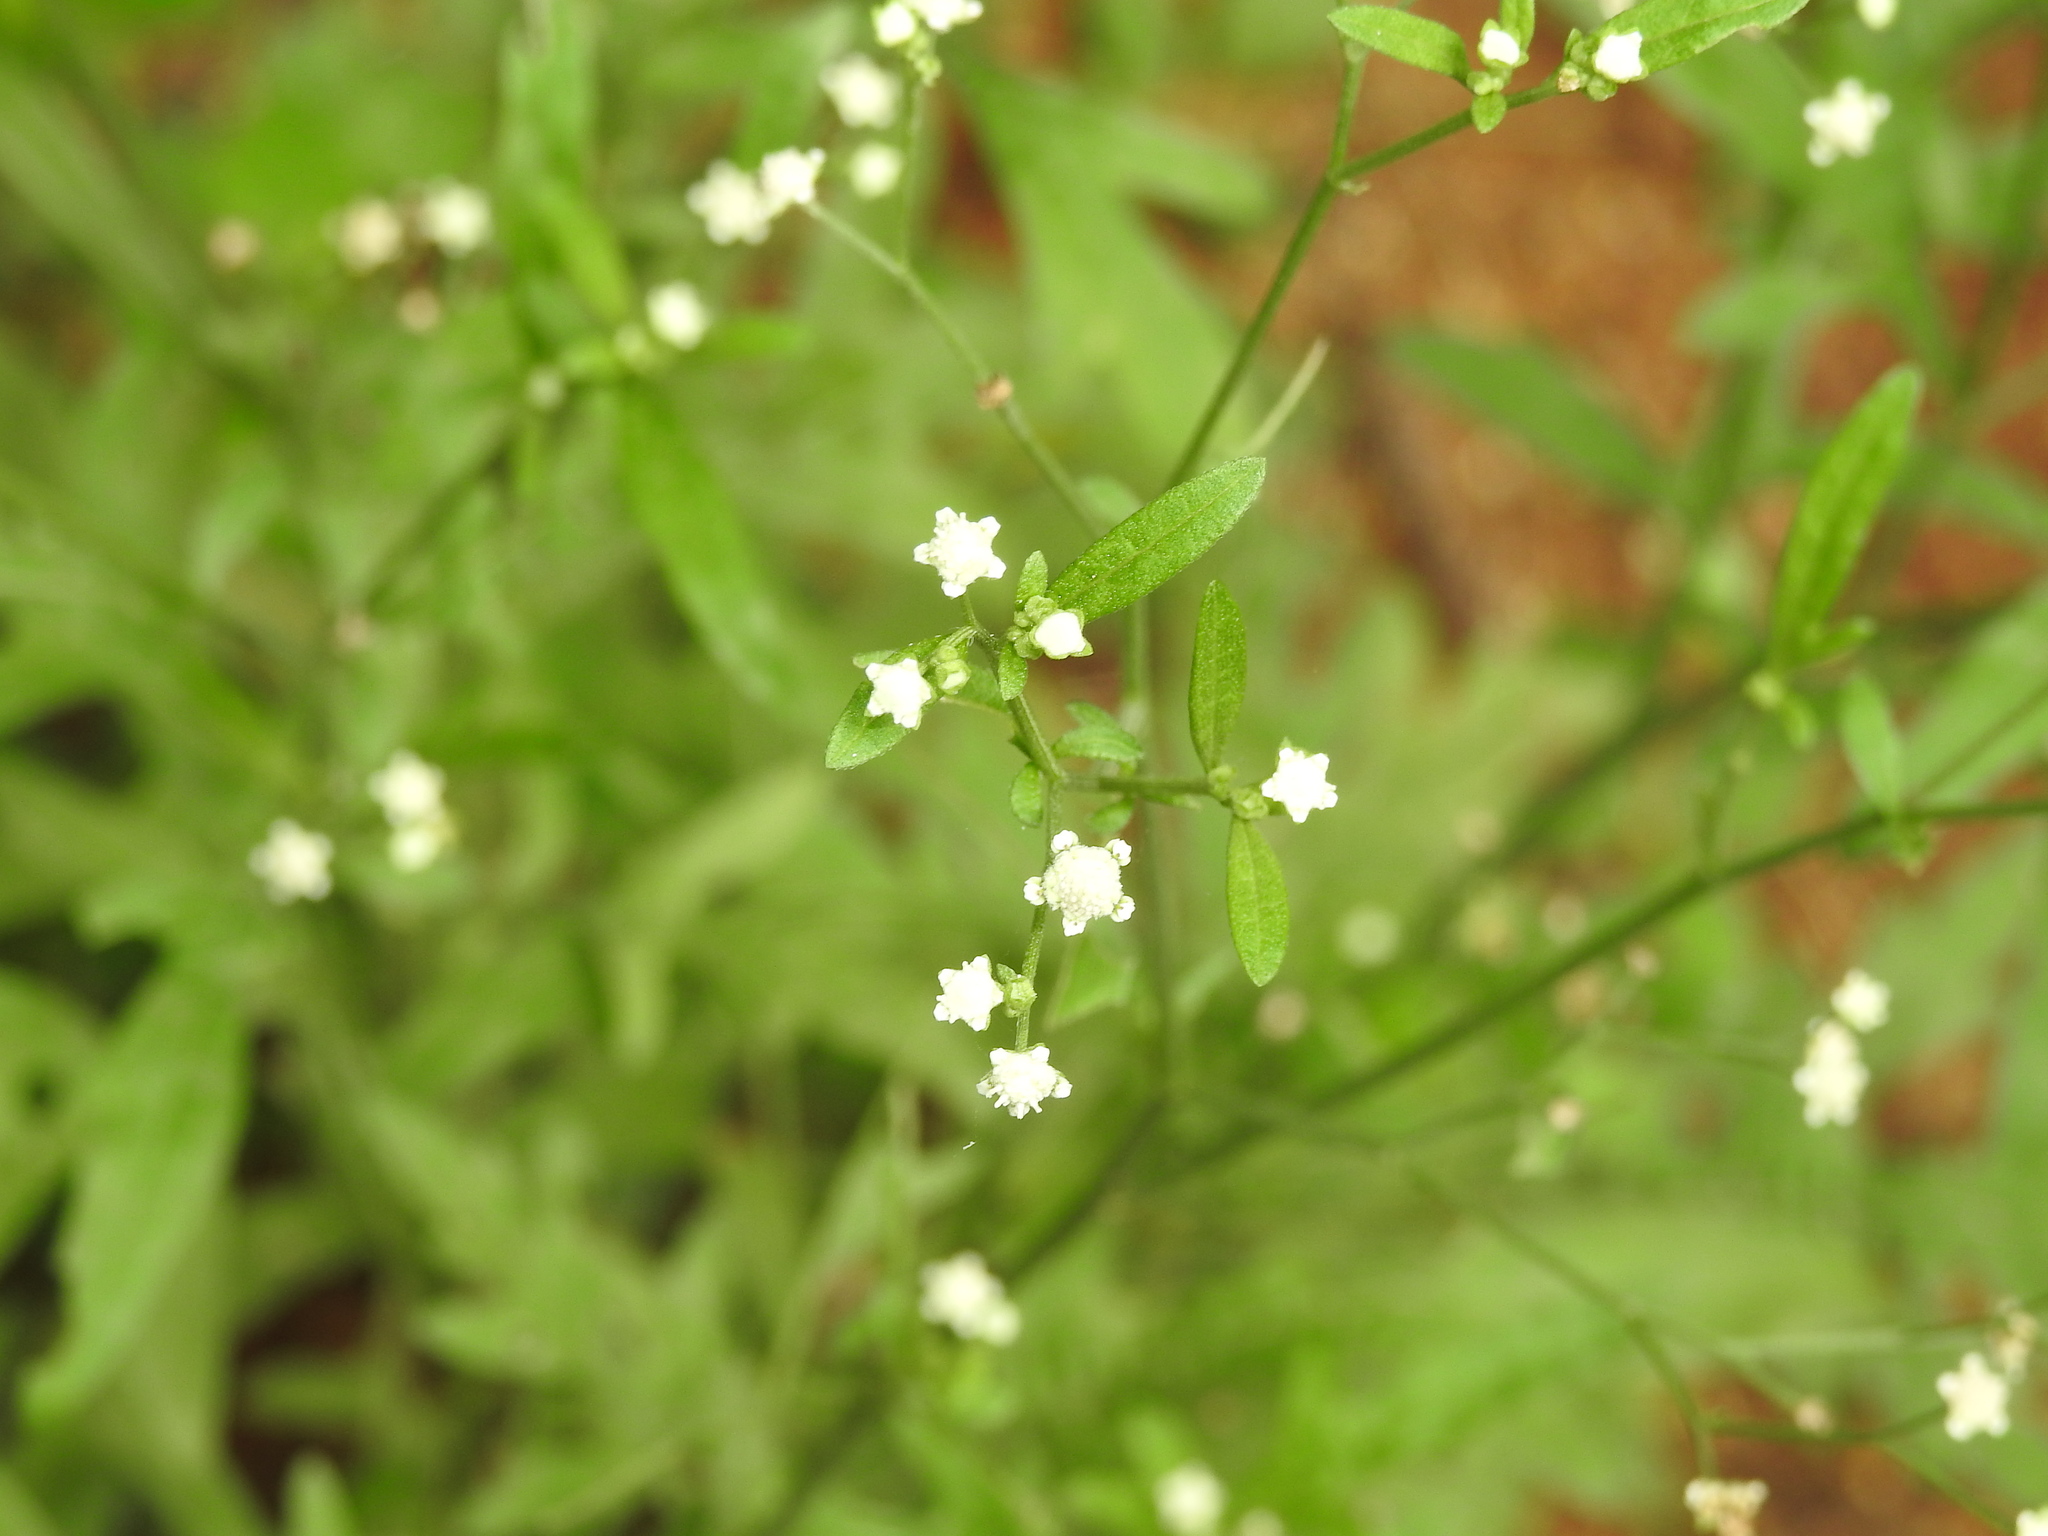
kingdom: Plantae
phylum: Tracheophyta
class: Magnoliopsida
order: Asterales
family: Asteraceae
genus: Parthenium
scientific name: Parthenium hysterophorus
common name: Santa maria feverfew
